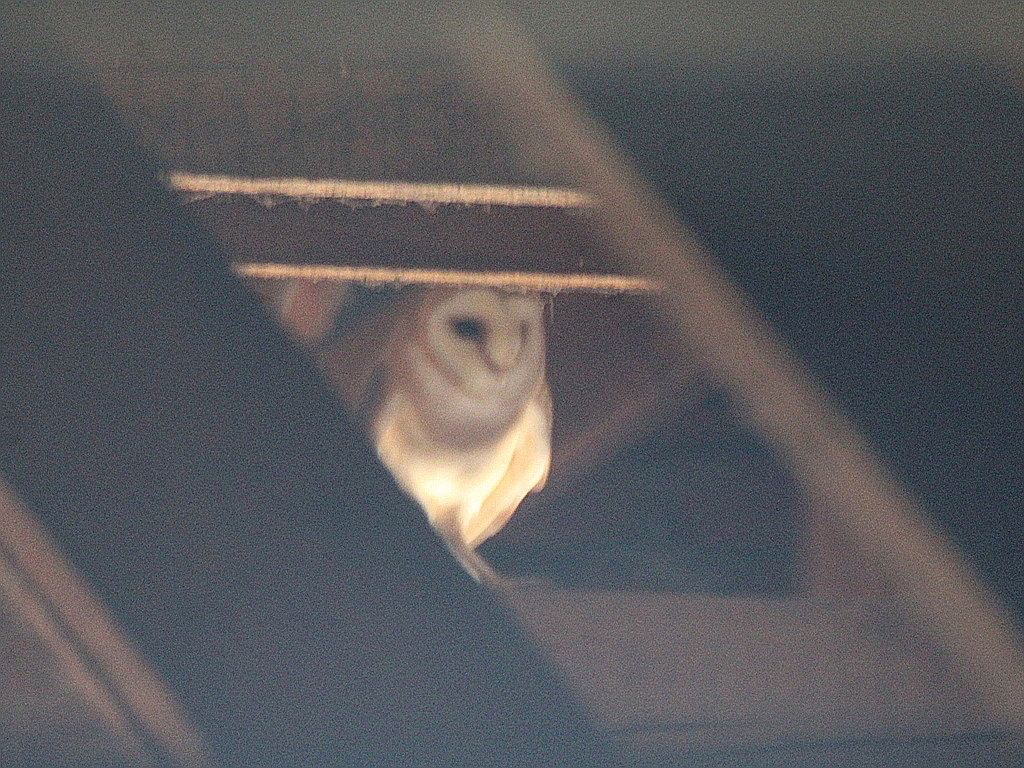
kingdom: Animalia
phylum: Chordata
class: Aves
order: Strigiformes
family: Tytonidae
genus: Tyto
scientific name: Tyto alba
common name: Barn owl
